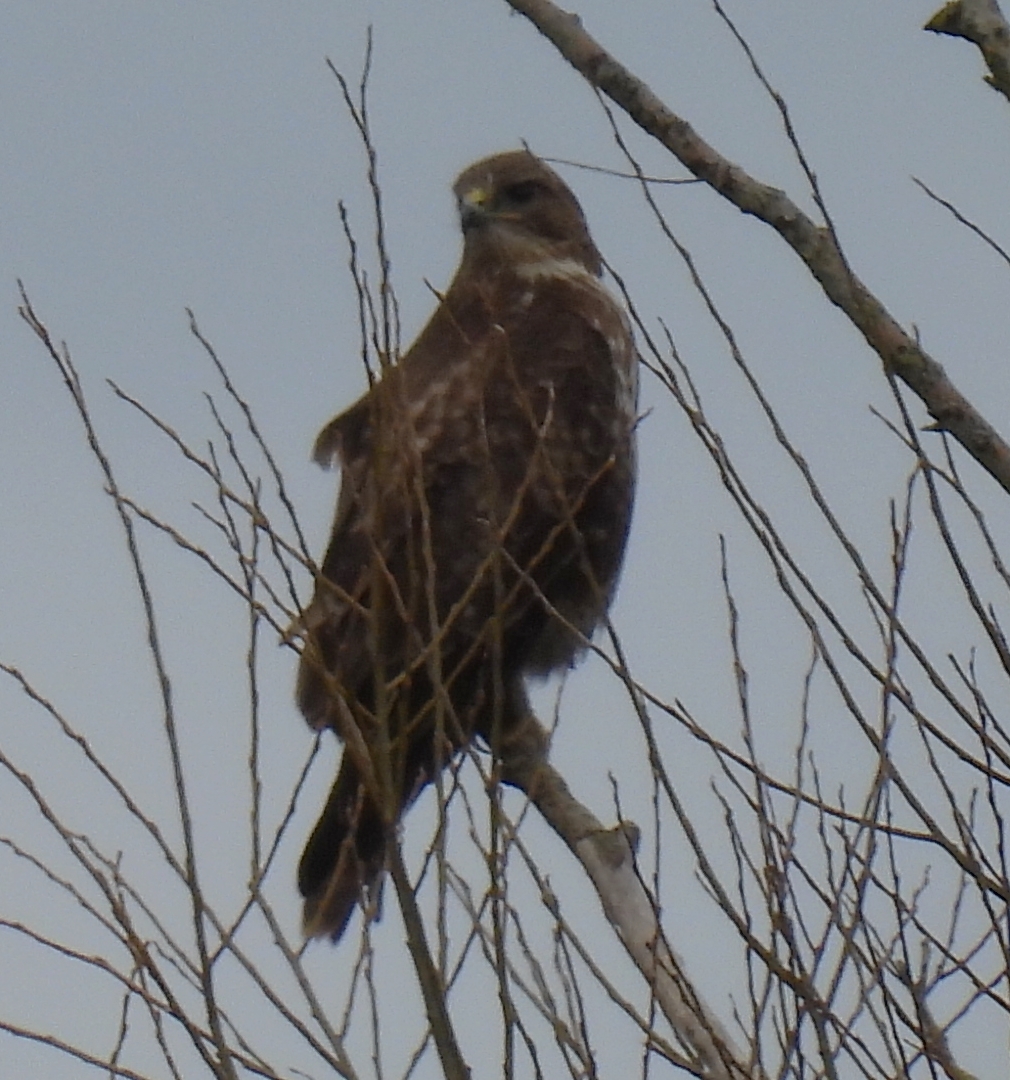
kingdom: Animalia
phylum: Chordata
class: Aves
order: Accipitriformes
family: Accipitridae
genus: Buteo
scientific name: Buteo buteo
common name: Common buzzard
